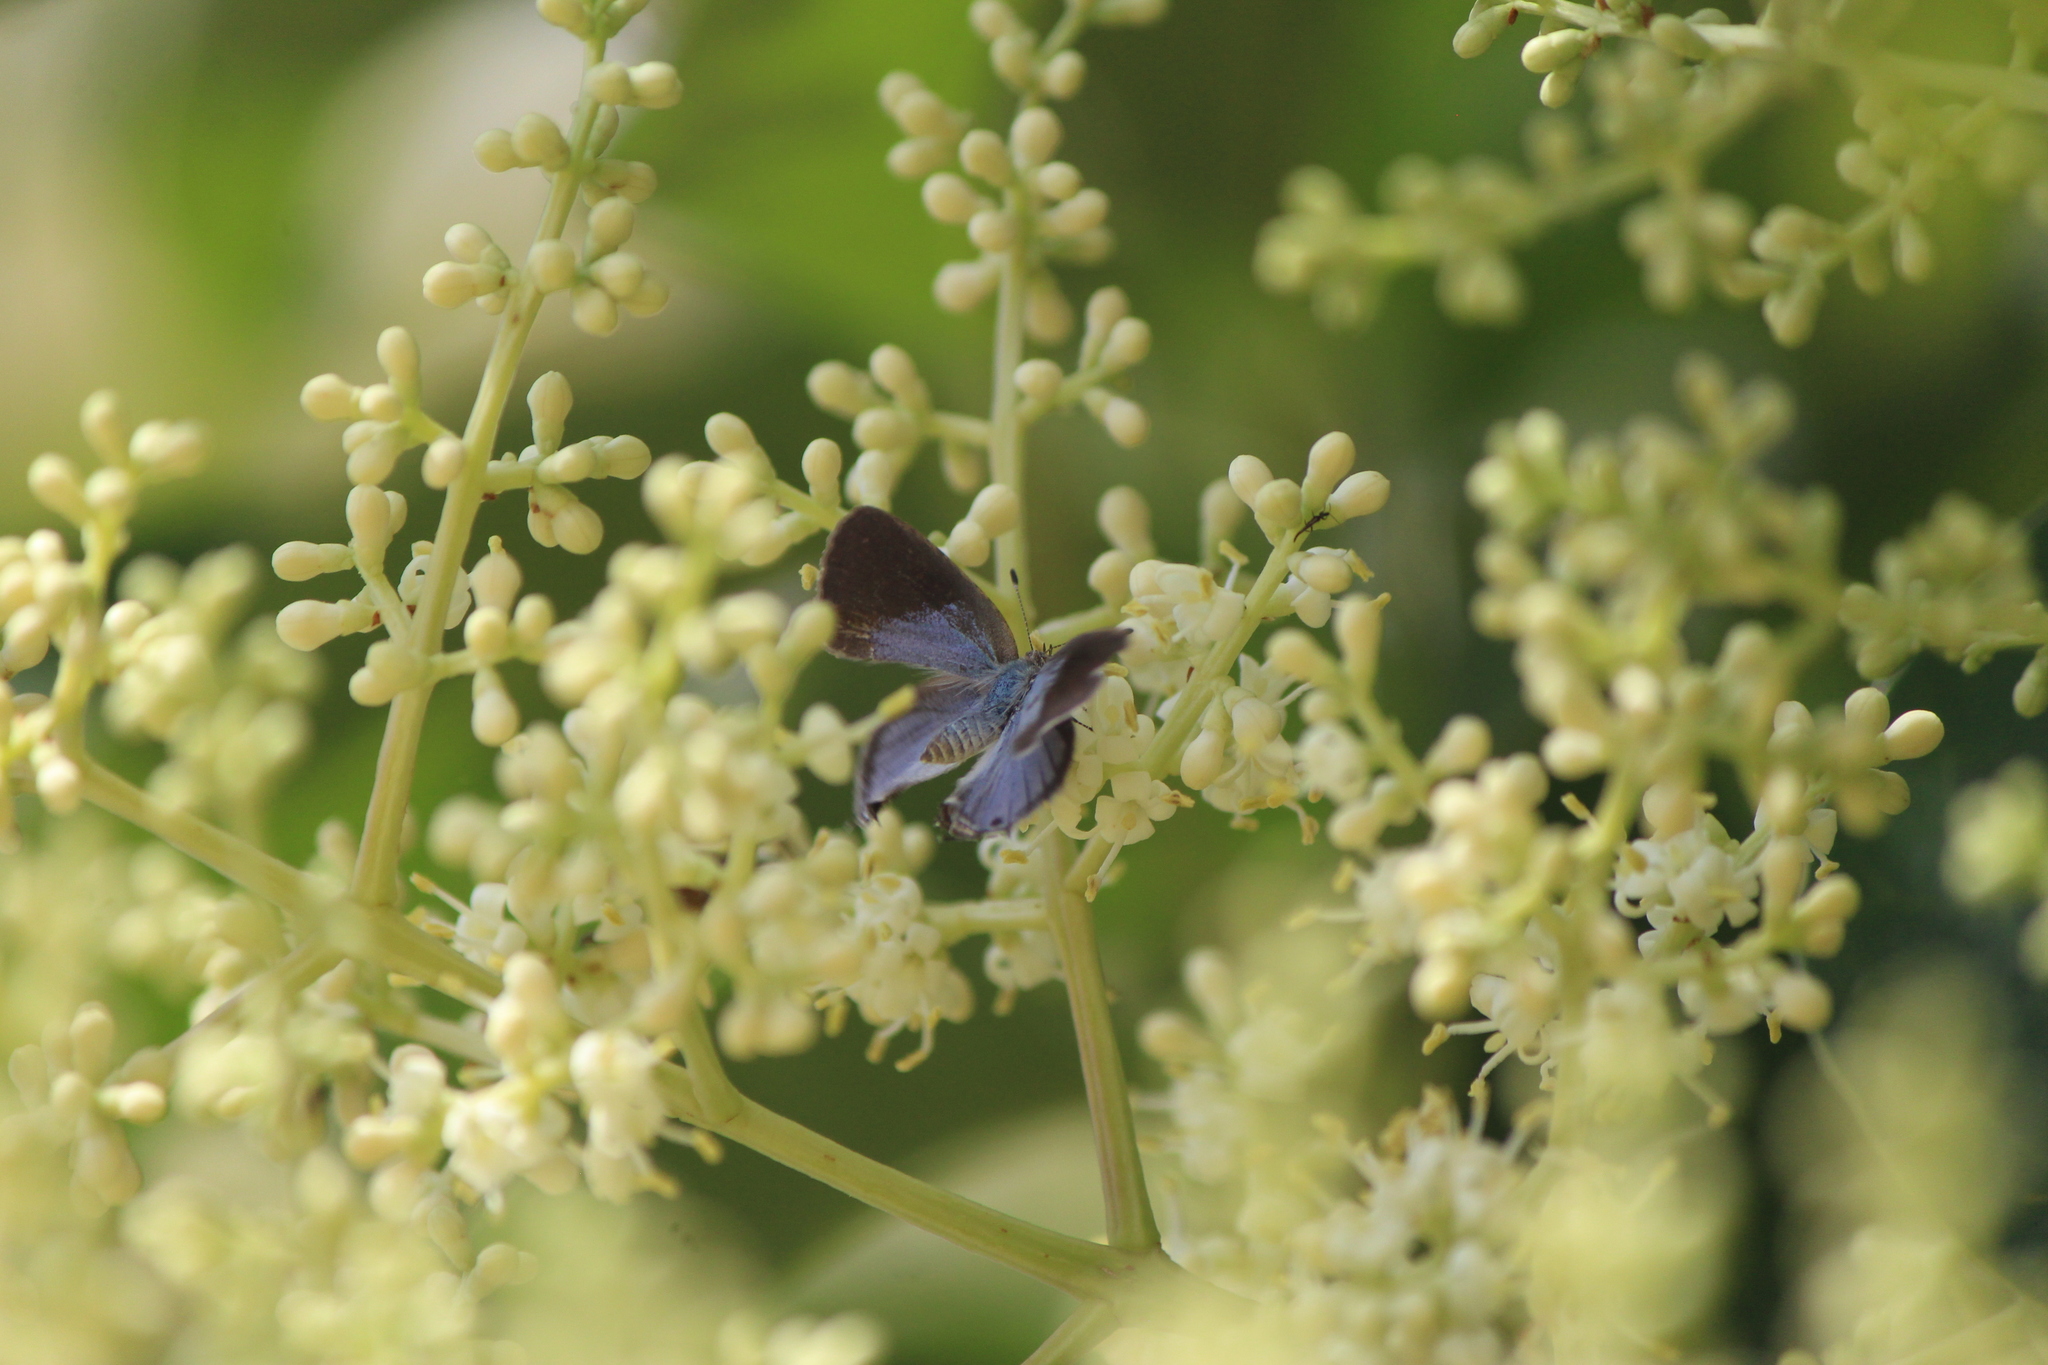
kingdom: Animalia
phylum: Arthropoda
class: Insecta
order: Lepidoptera
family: Lycaenidae
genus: Ministrymon
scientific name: Ministrymon leda
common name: Leda ministreak
